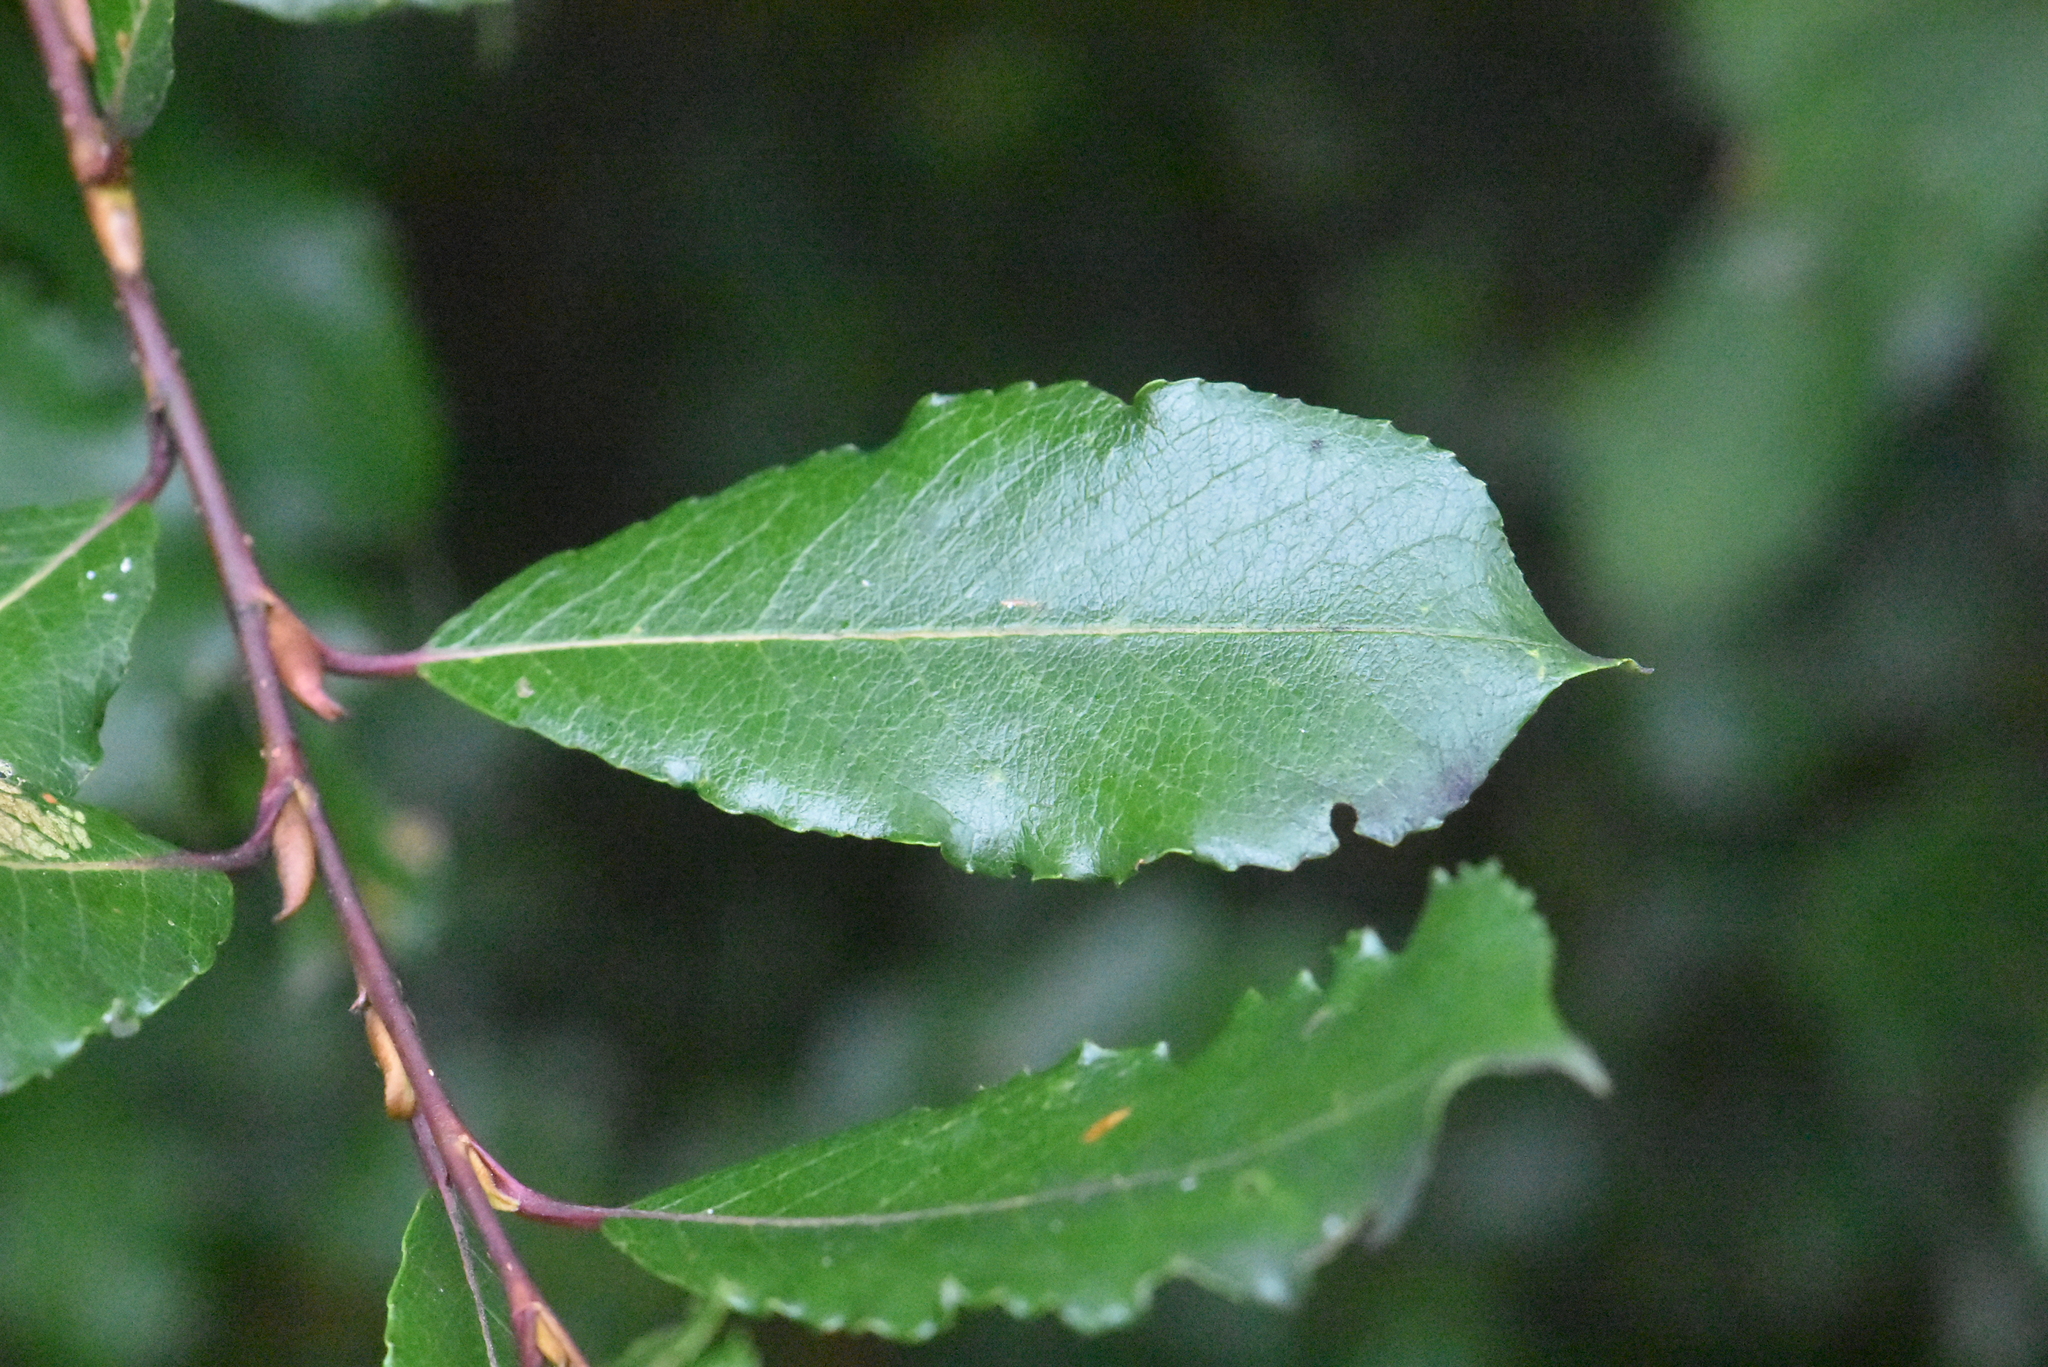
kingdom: Plantae
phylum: Tracheophyta
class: Magnoliopsida
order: Malpighiales
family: Salicaceae
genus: Salix
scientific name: Salix phylicifolia
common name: Tea-leaved willow
